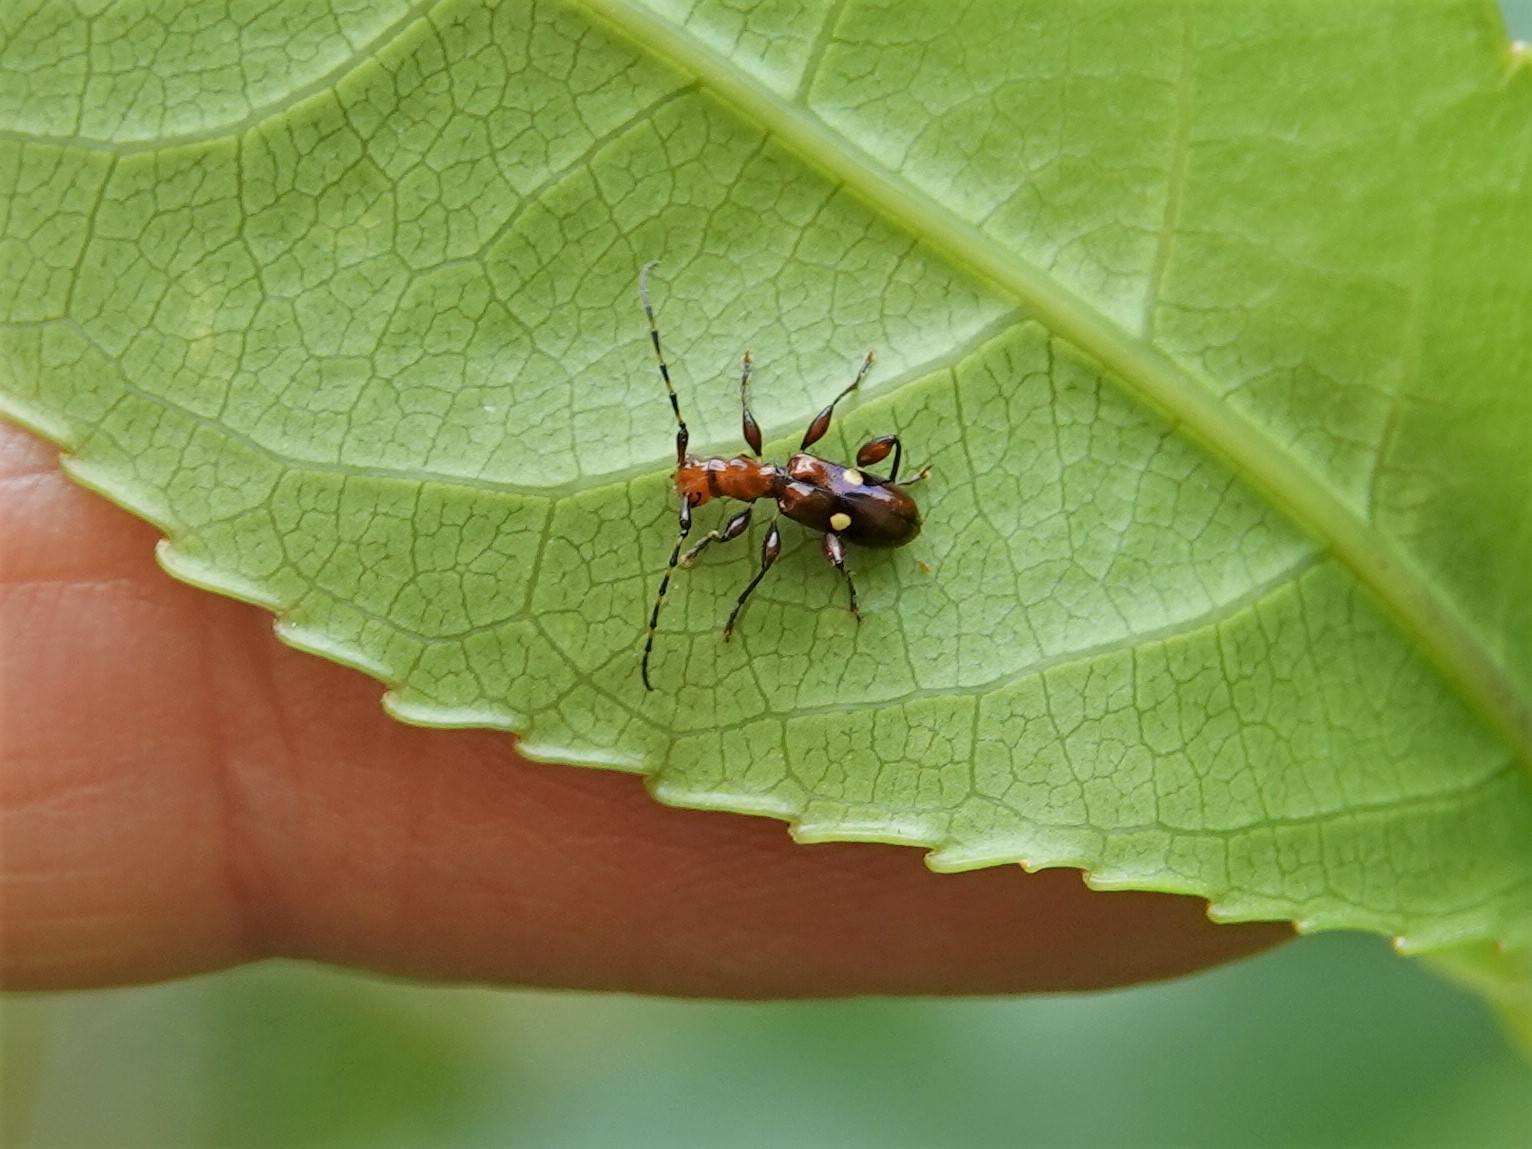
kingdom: Animalia
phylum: Arthropoda
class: Insecta
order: Coleoptera
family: Cerambycidae
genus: Zorion
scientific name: Zorion batesi
